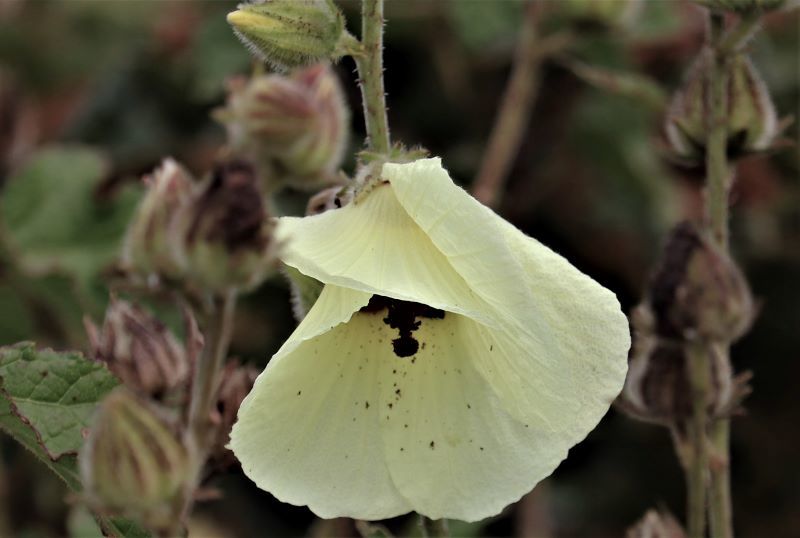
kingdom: Plantae
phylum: Tracheophyta
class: Magnoliopsida
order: Malvales
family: Malvaceae
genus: Hibiscus
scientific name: Hibiscus diversifolius
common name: Cape hibiscus
